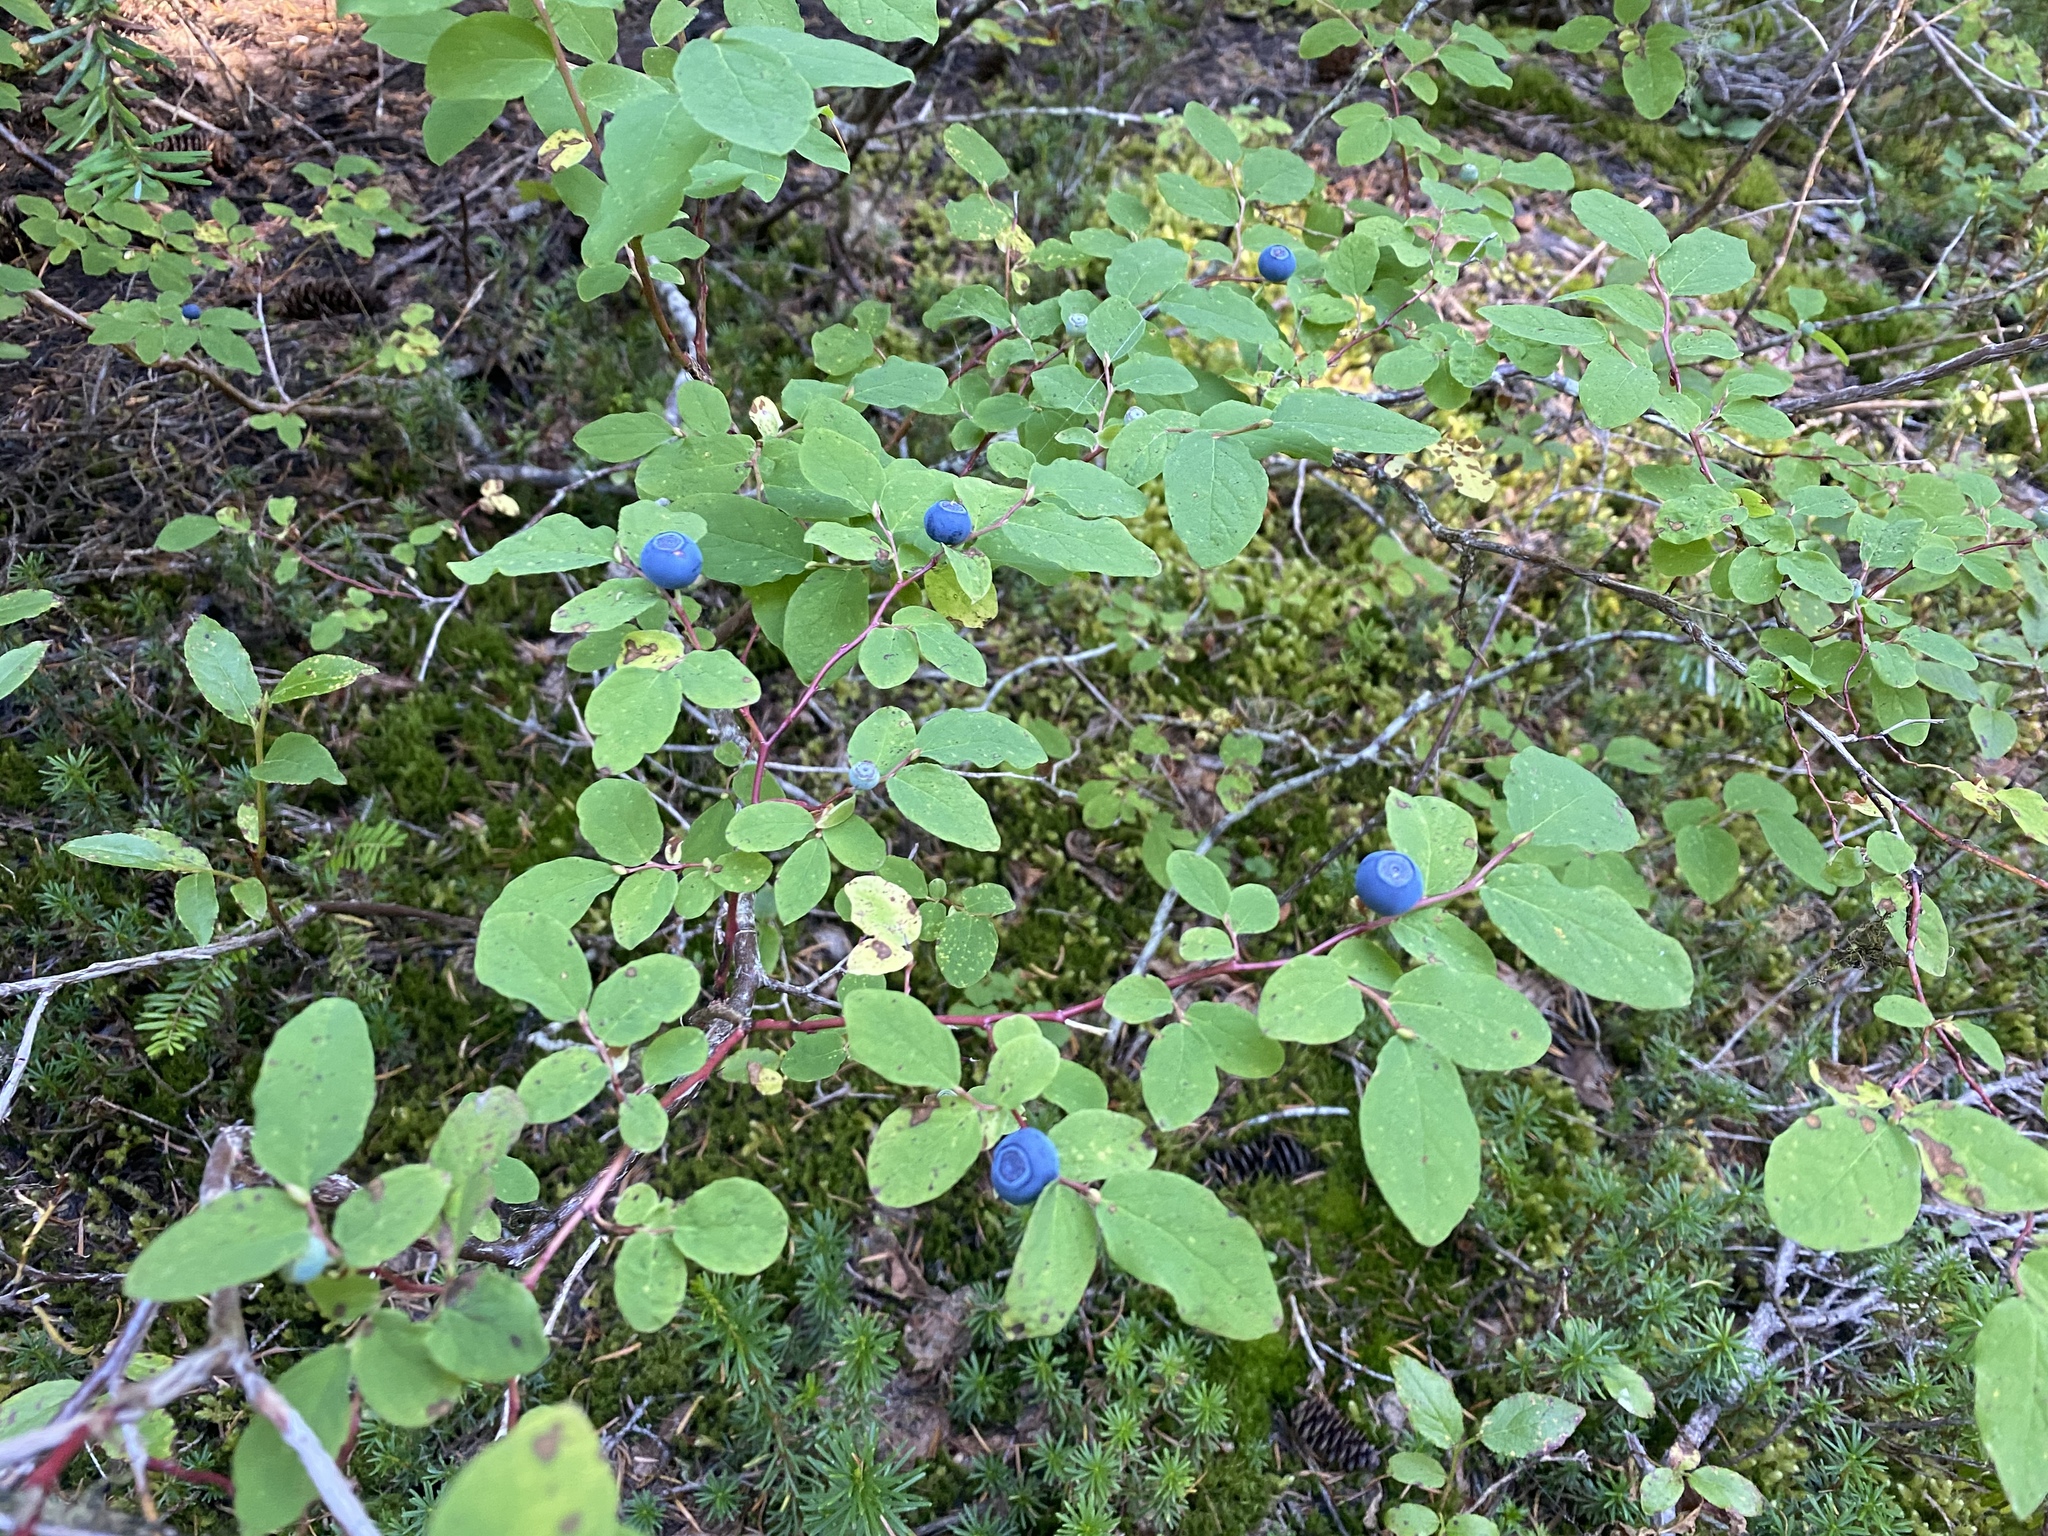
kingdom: Plantae
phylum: Tracheophyta
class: Magnoliopsida
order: Ericales
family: Ericaceae
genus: Vaccinium
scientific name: Vaccinium ovalifolium
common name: Early blueberry
